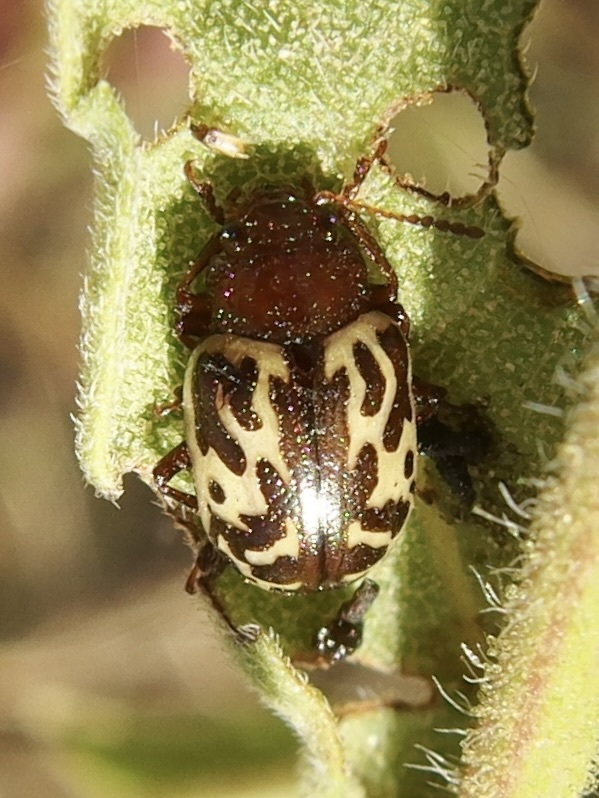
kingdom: Animalia
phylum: Arthropoda
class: Insecta
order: Coleoptera
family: Chrysomelidae
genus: Calligrapha
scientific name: Calligrapha
